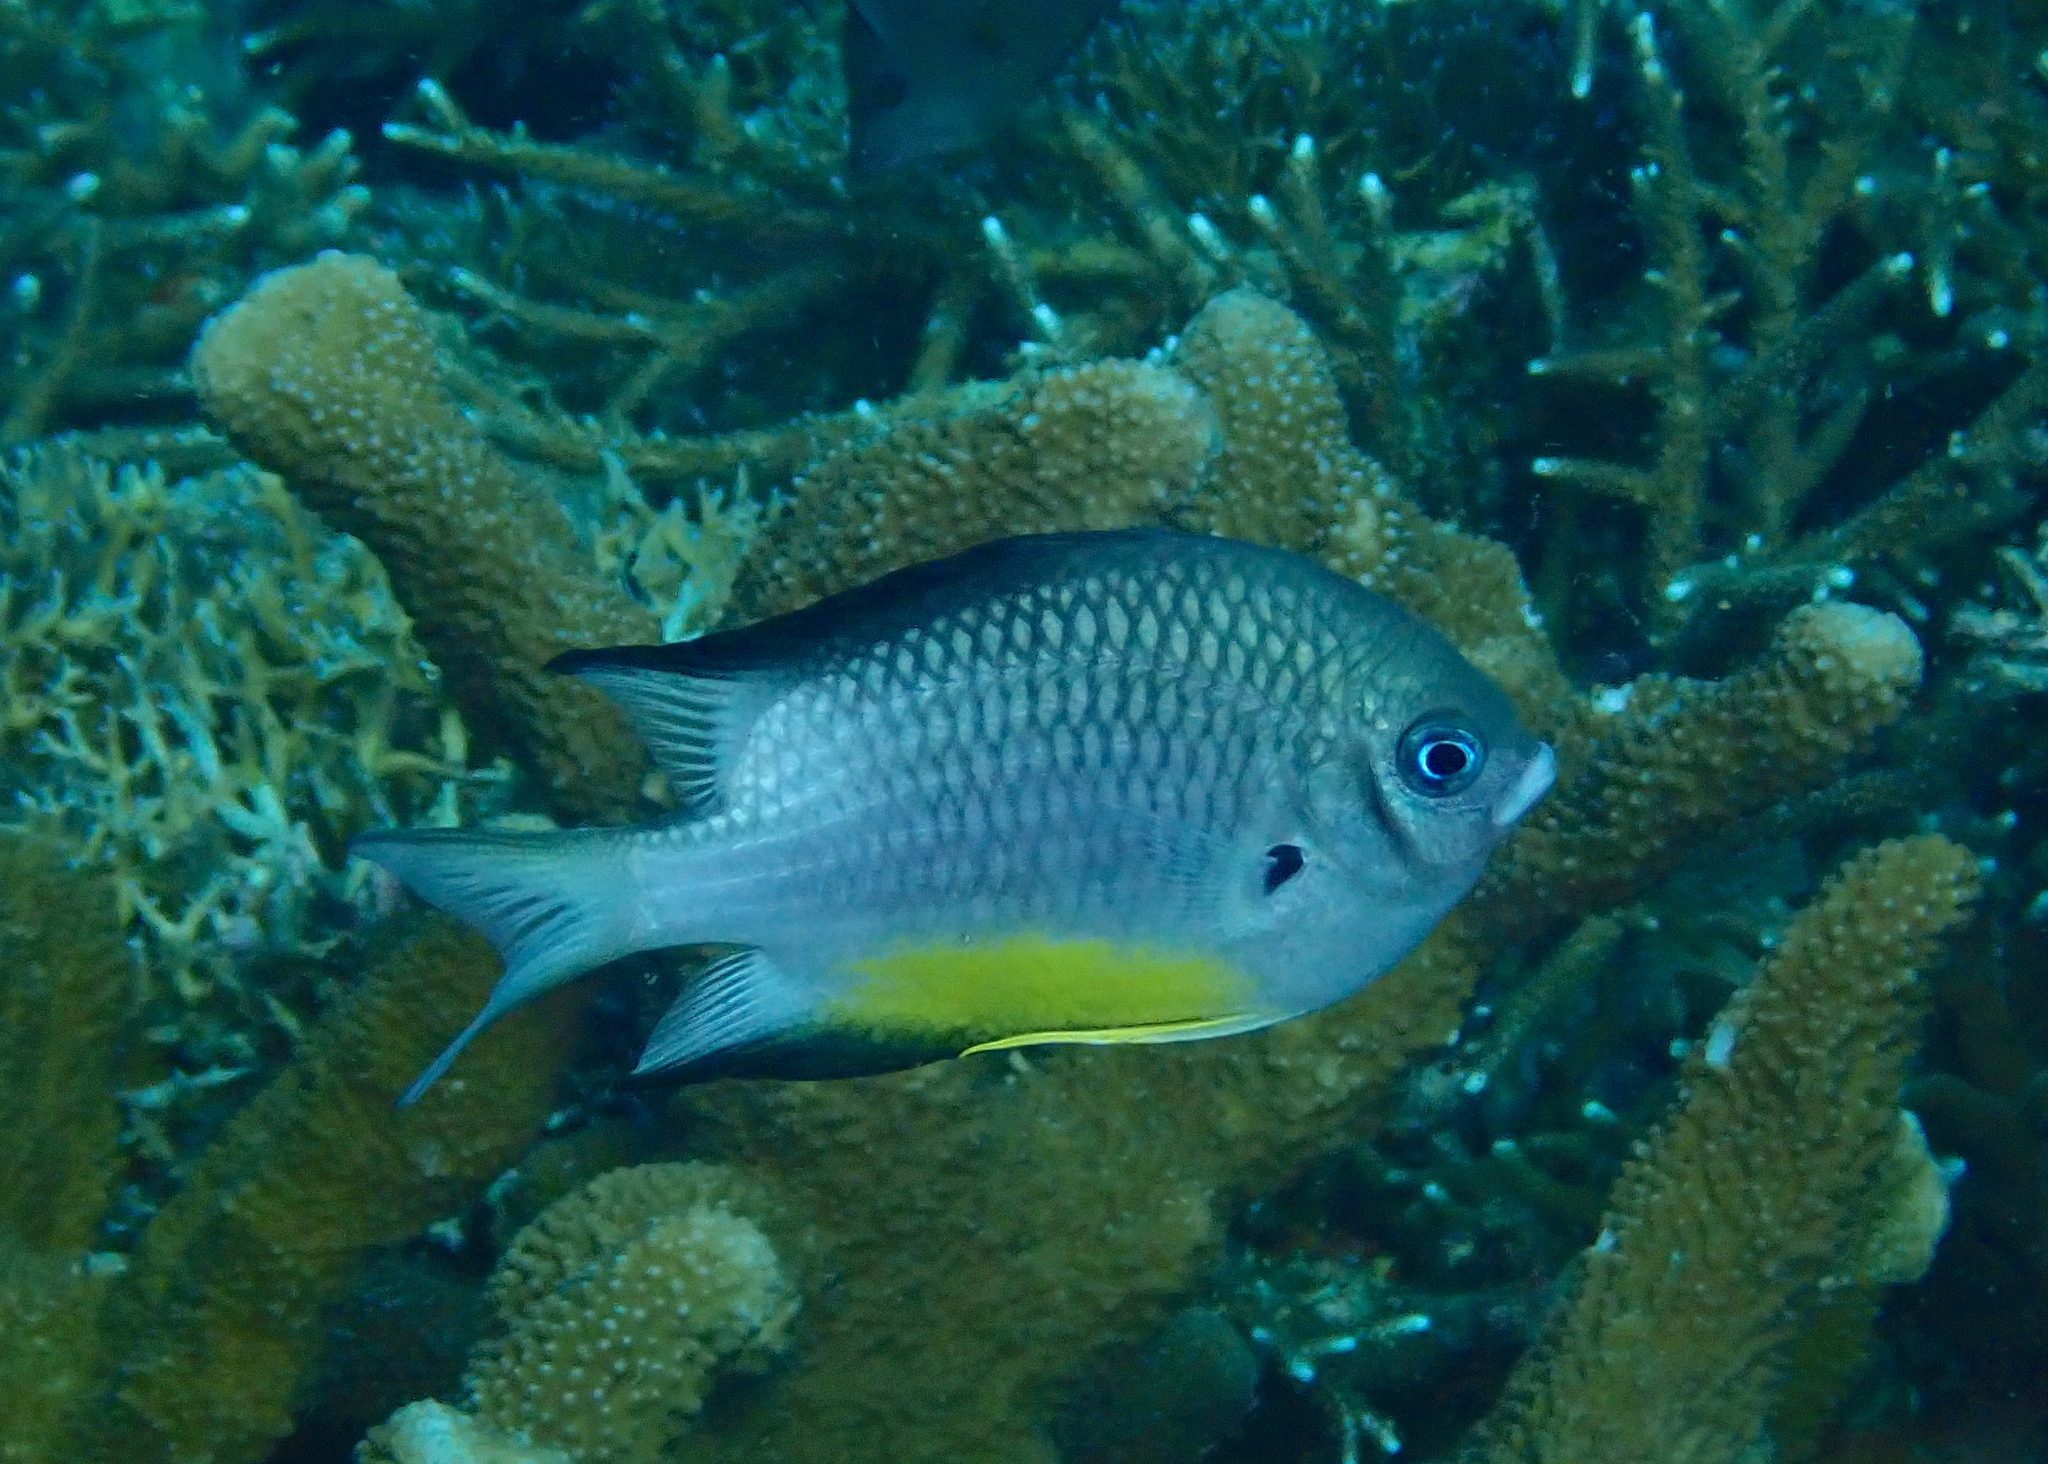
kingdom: Animalia
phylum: Chordata
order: Perciformes
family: Pomacentridae
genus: Amblyglyphidodon
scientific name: Amblyglyphidodon leucogaster
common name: White-belly damsel
